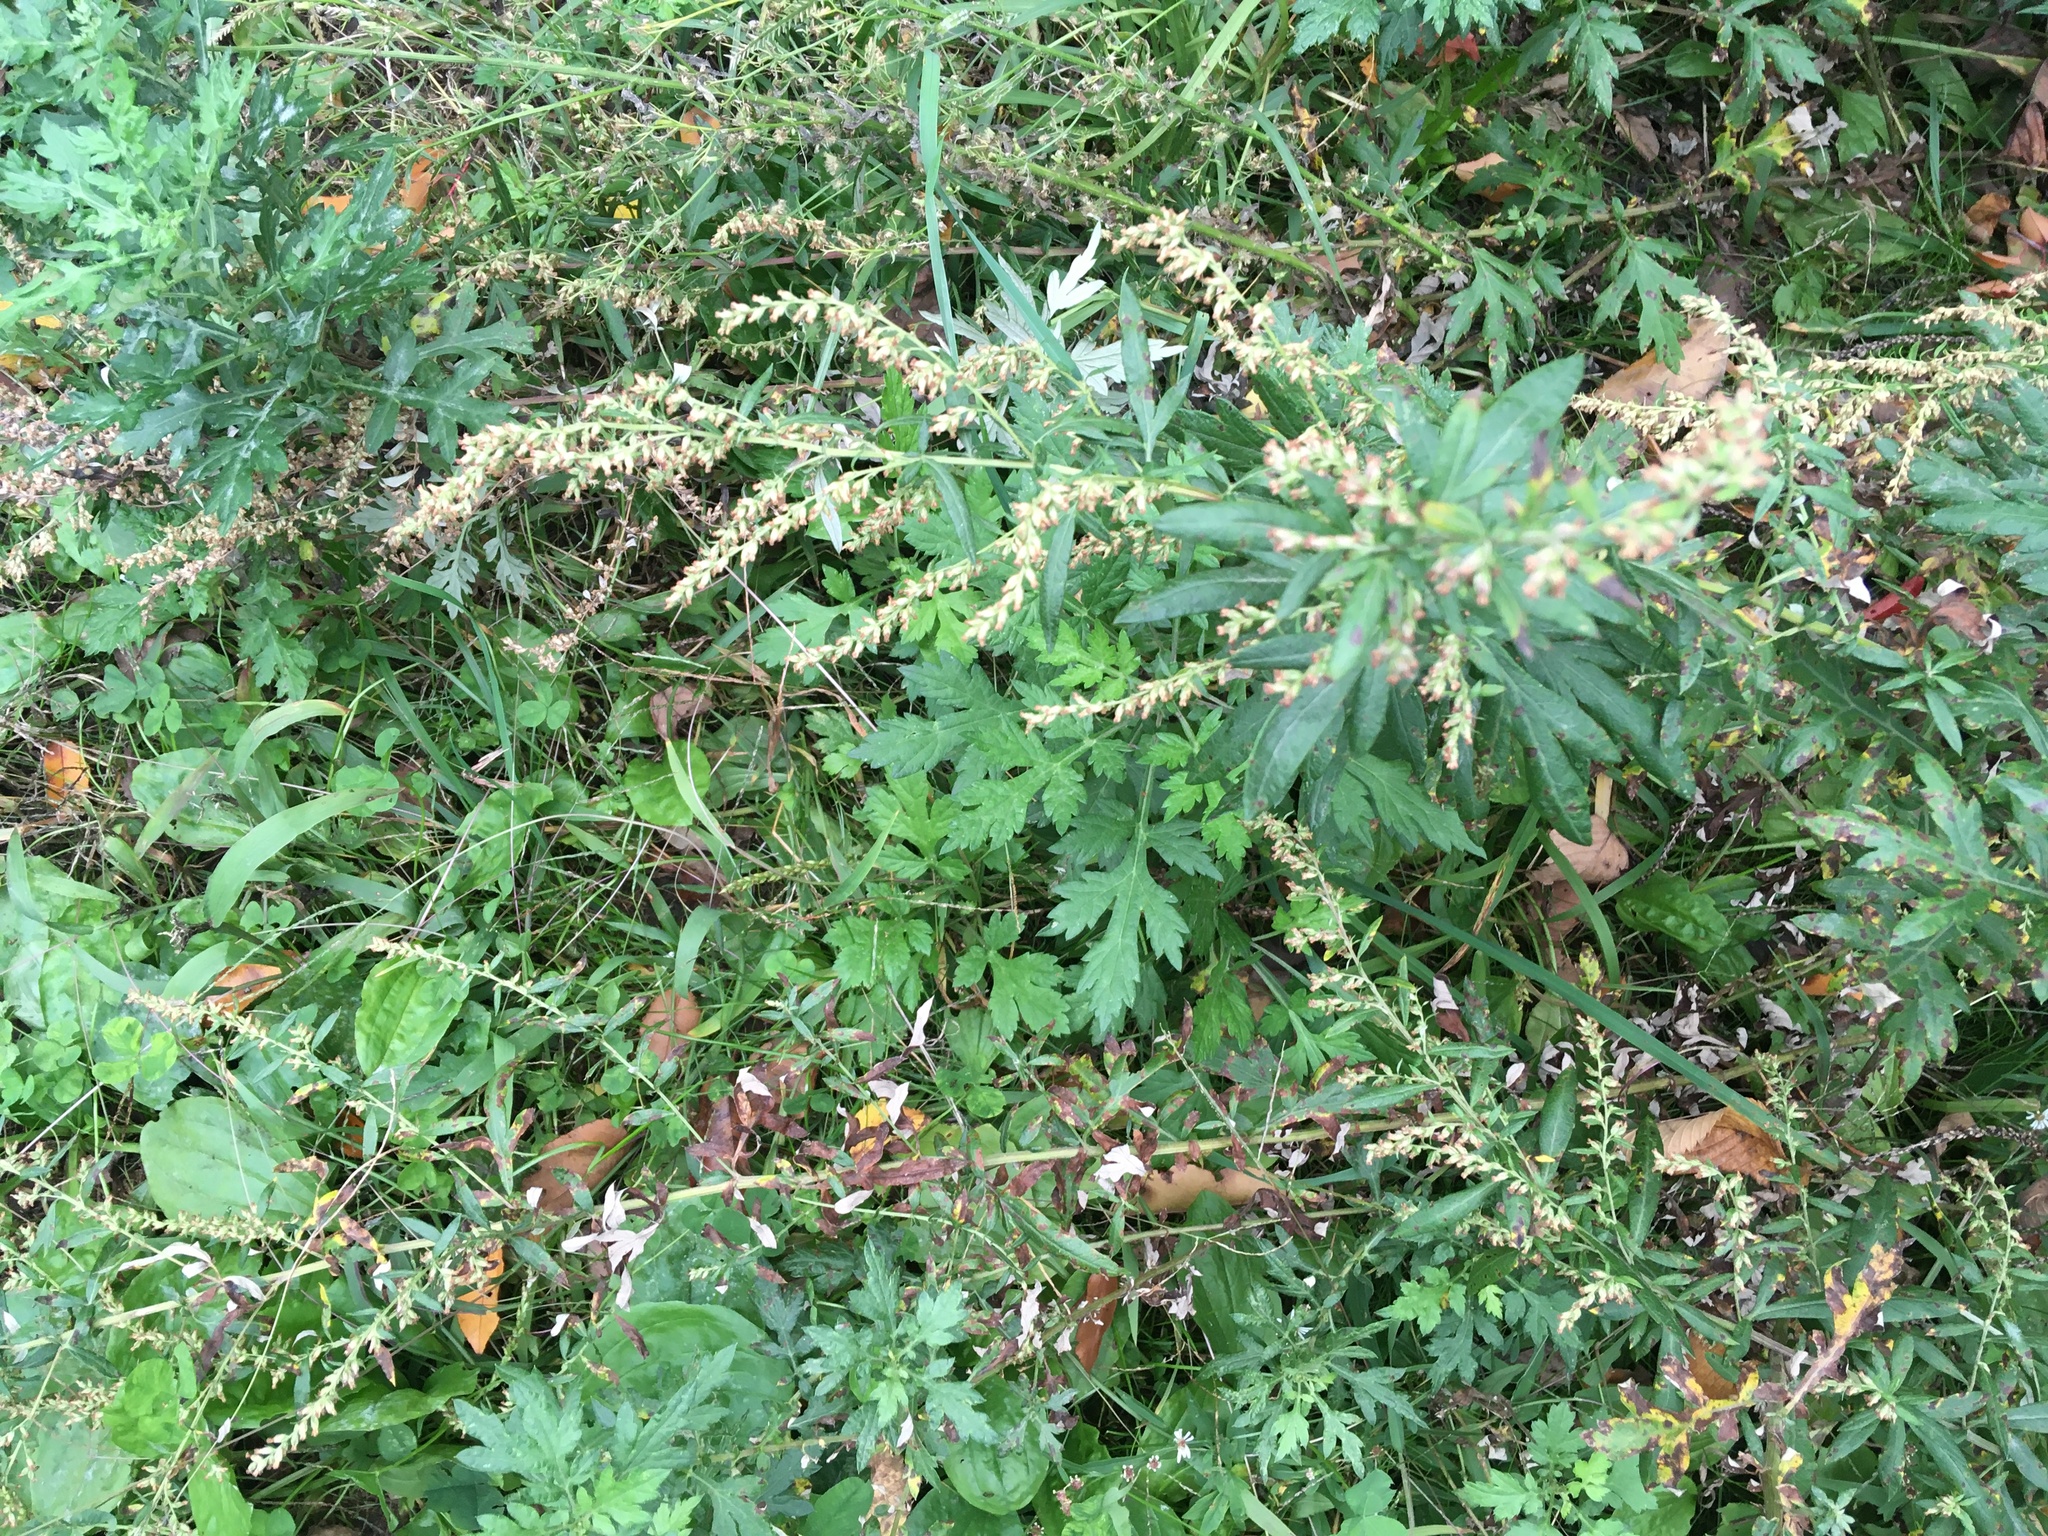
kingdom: Plantae
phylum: Tracheophyta
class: Magnoliopsida
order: Asterales
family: Asteraceae
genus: Artemisia
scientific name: Artemisia vulgaris
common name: Mugwort
